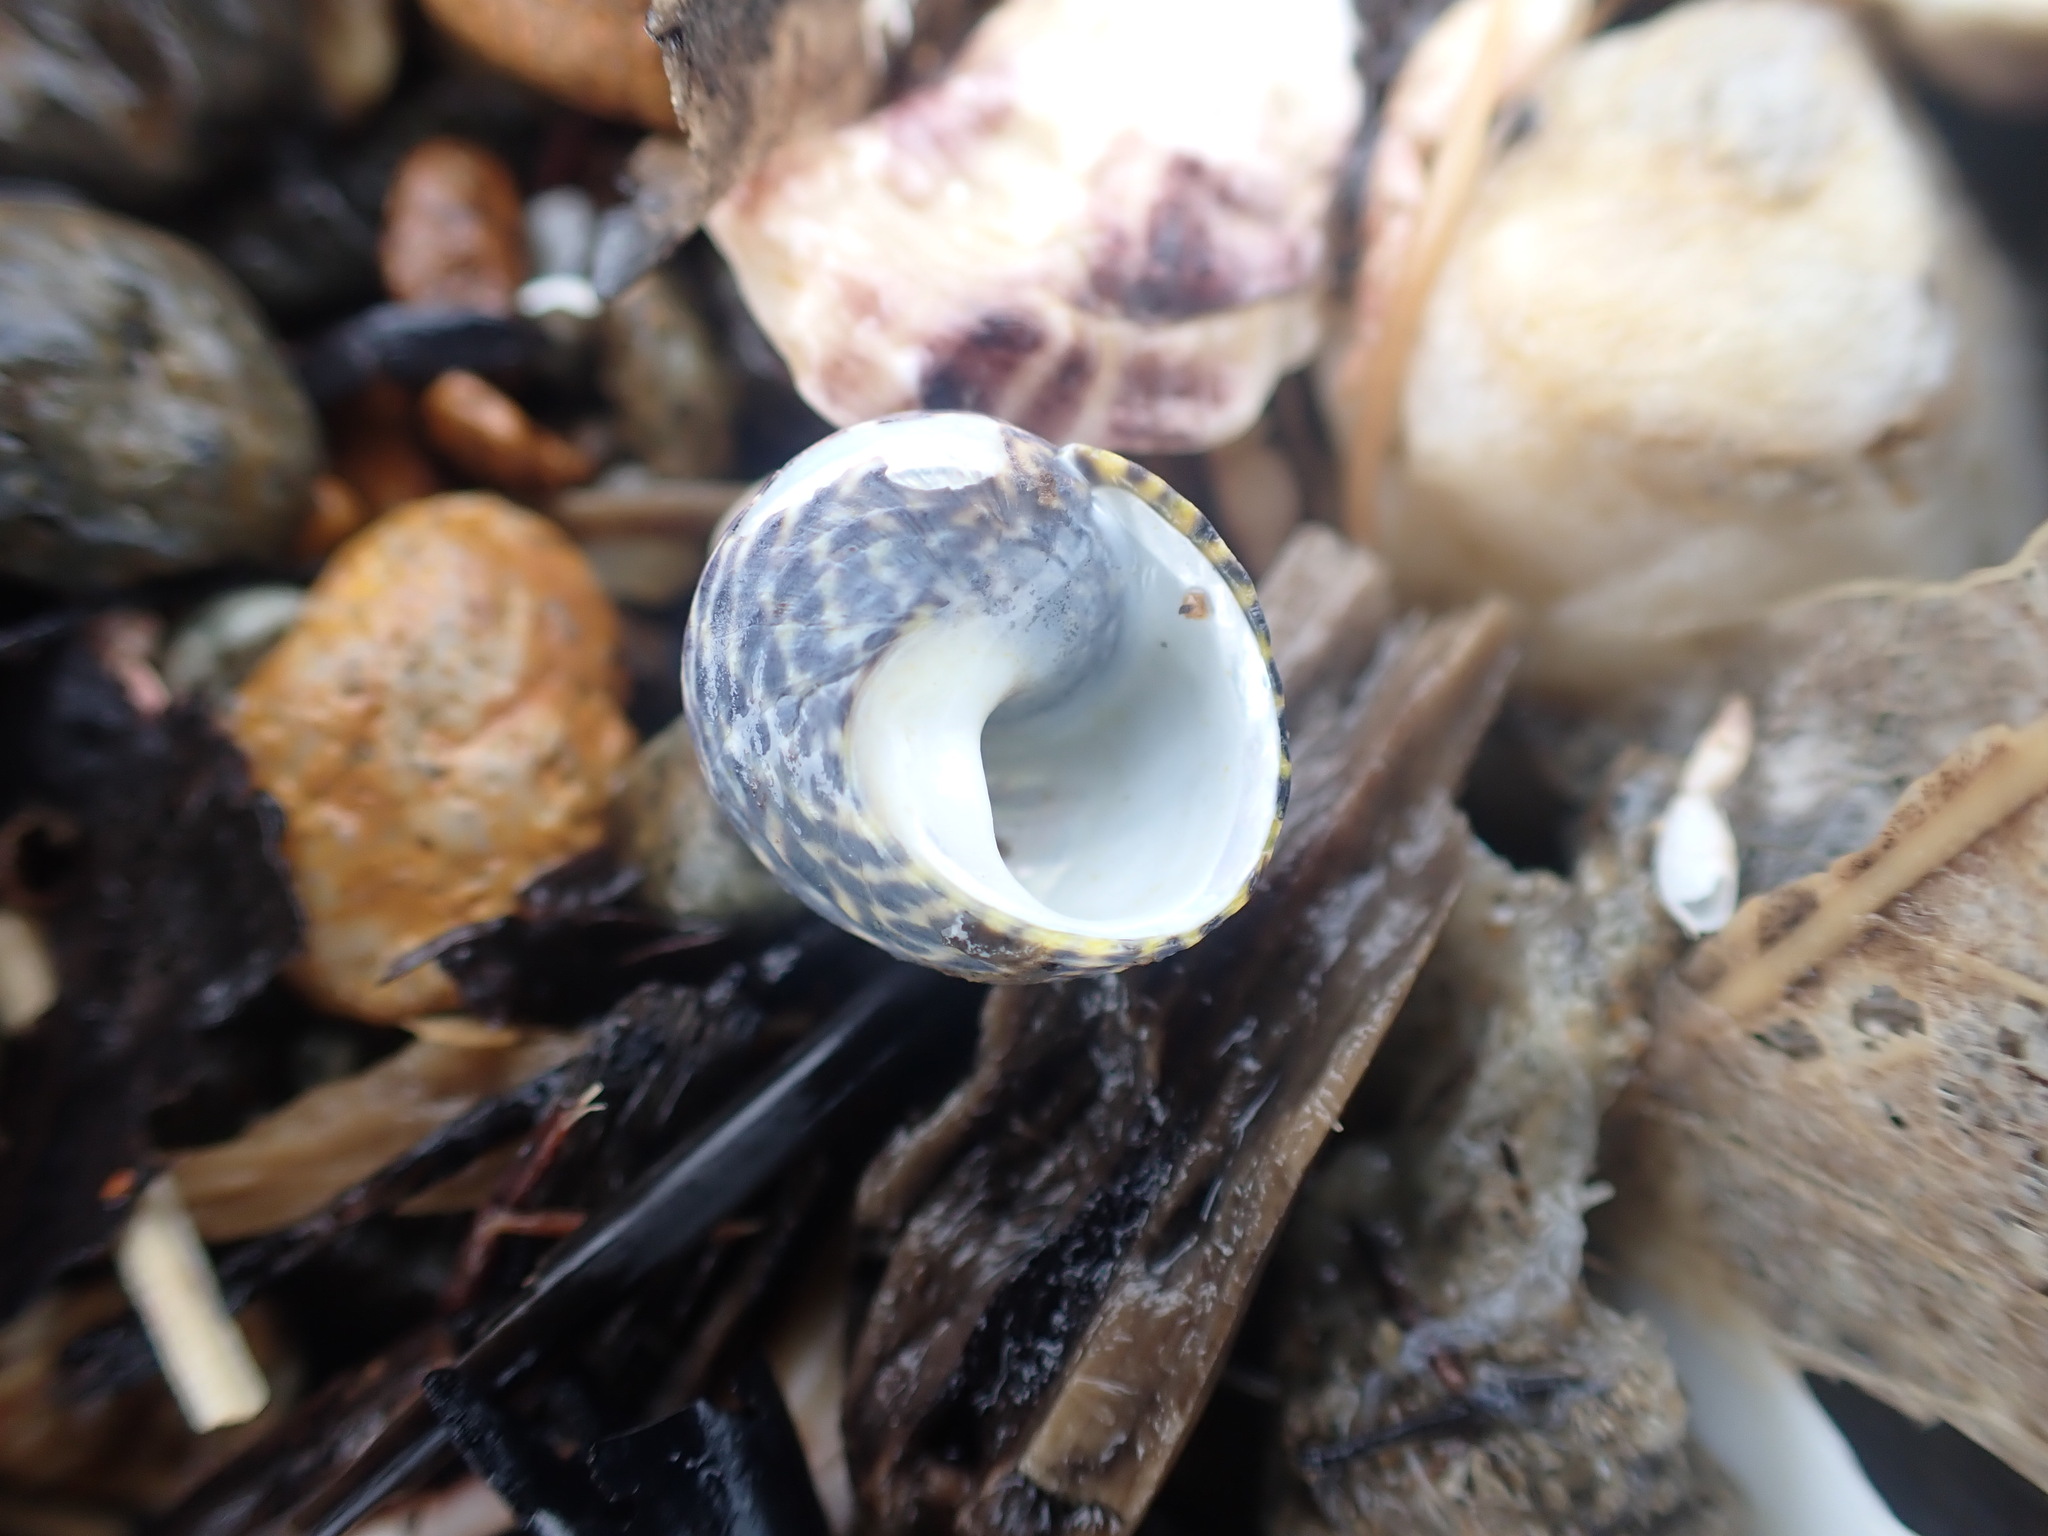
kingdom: Animalia
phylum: Mollusca
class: Gastropoda
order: Trochida
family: Trochidae
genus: Diloma
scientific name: Diloma subrostratum
